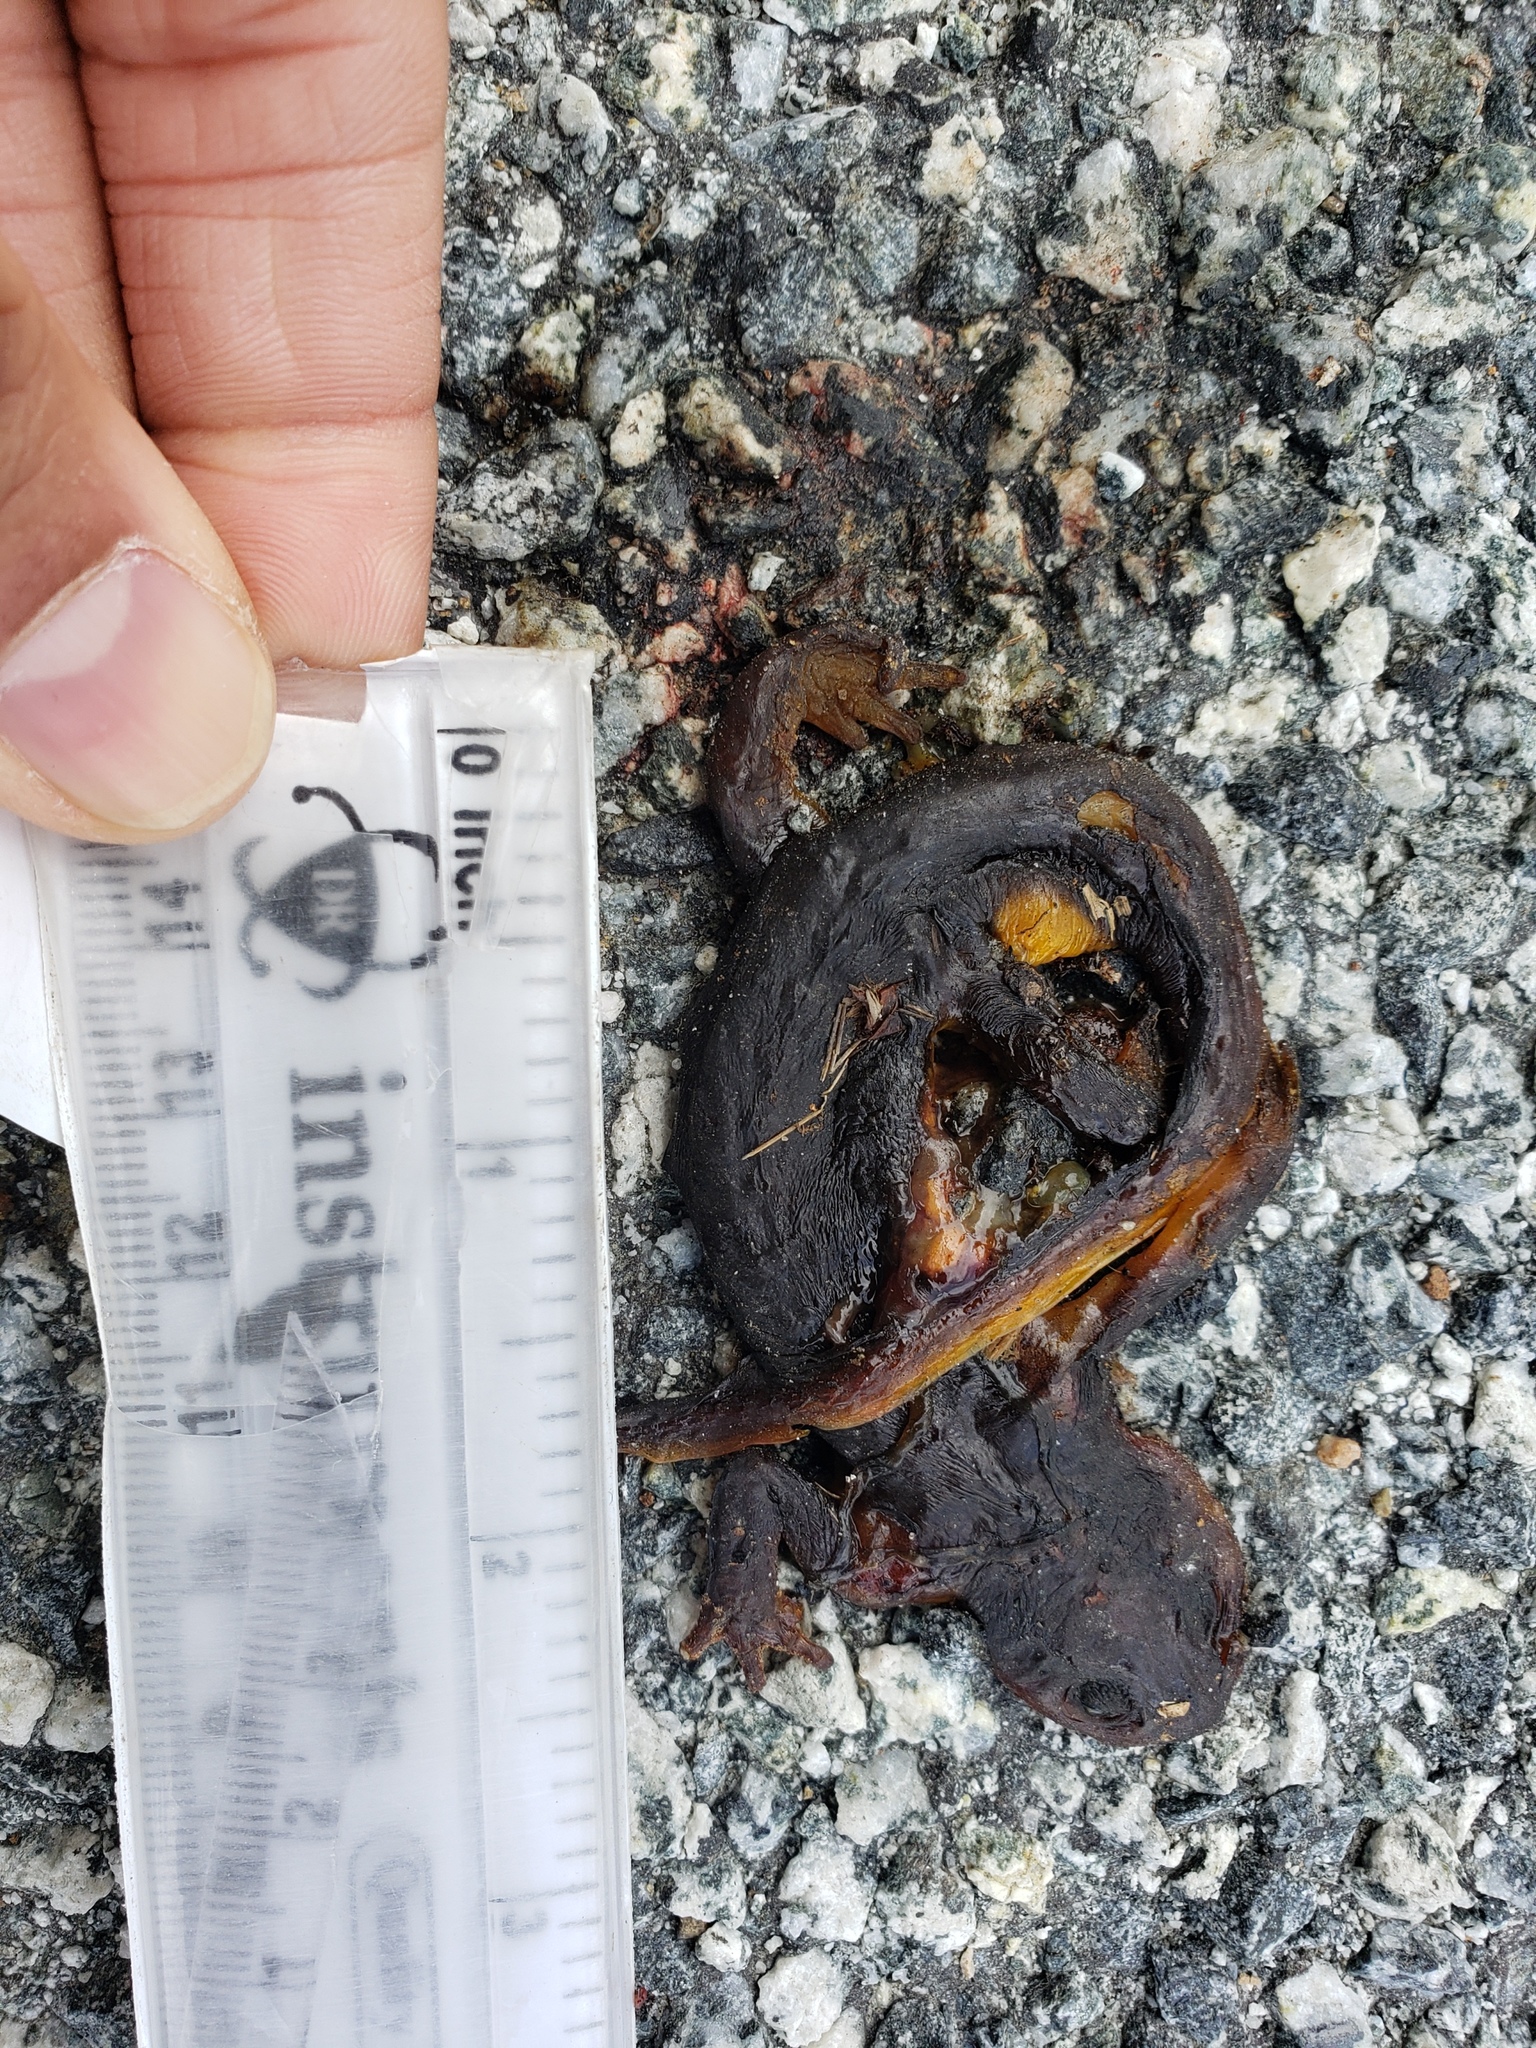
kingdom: Animalia
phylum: Chordata
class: Amphibia
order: Caudata
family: Salamandridae
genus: Taricha
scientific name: Taricha
